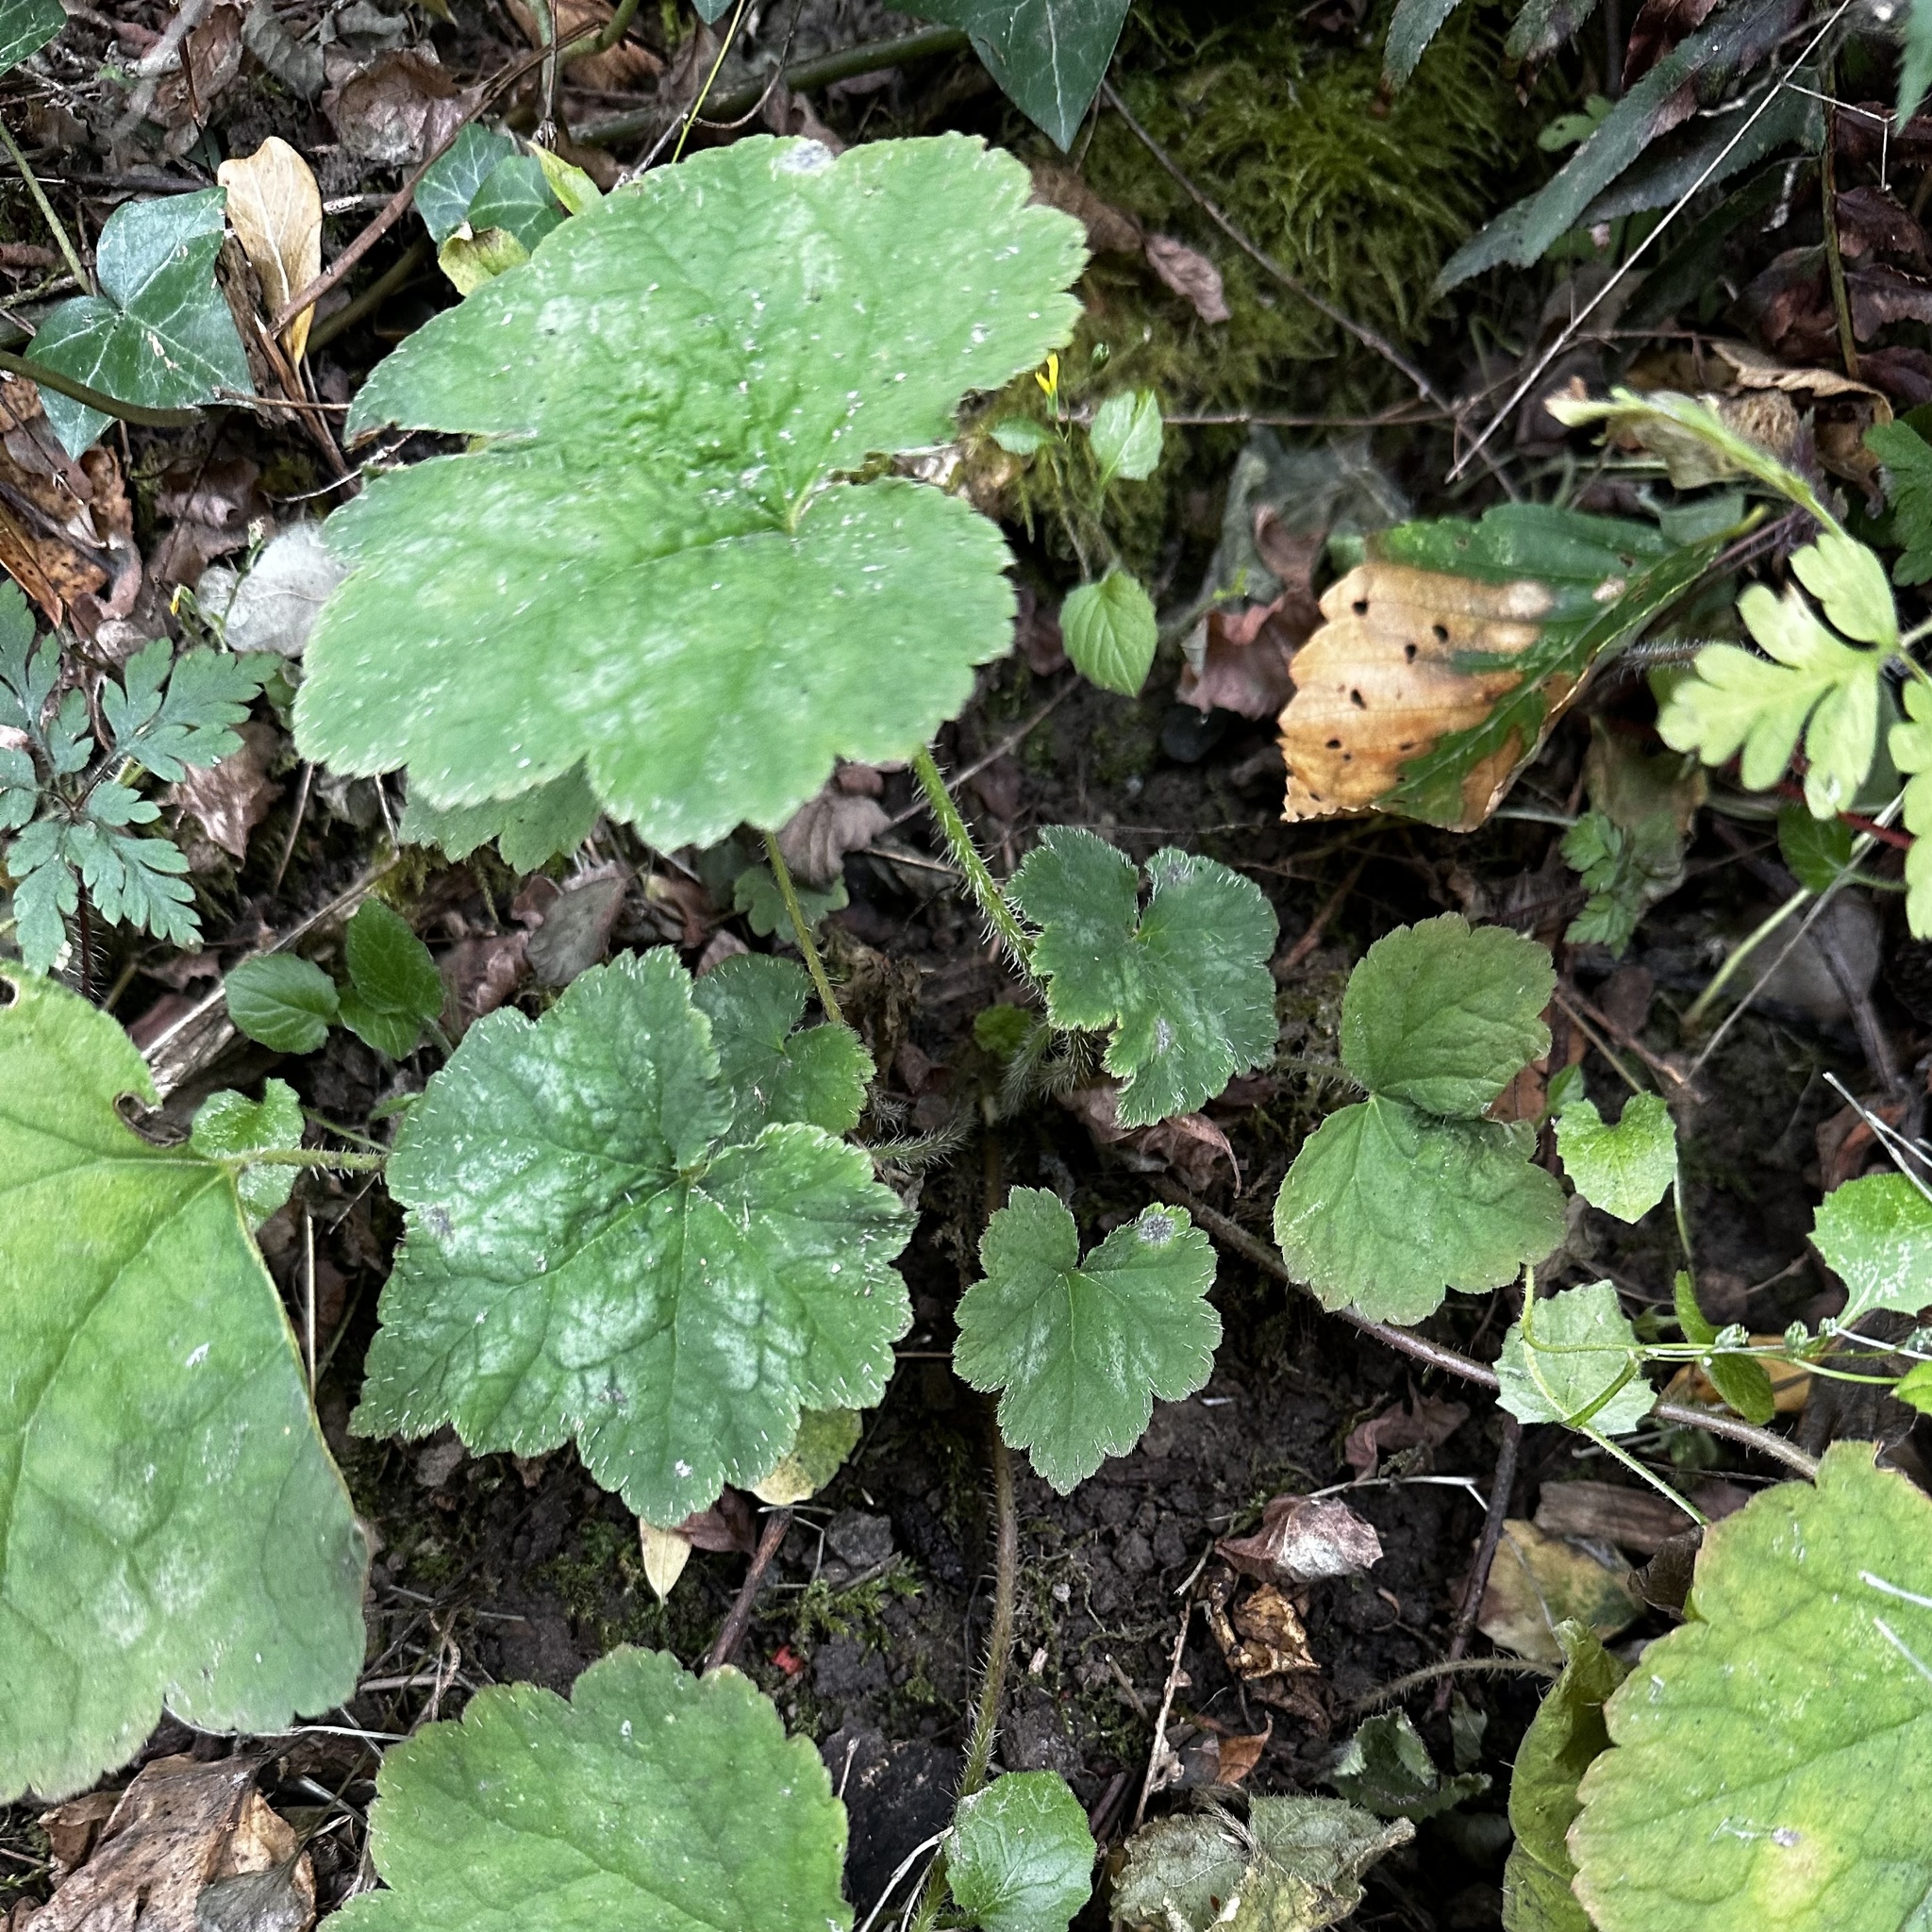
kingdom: Plantae
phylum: Tracheophyta
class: Magnoliopsida
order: Saxifragales
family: Saxifragaceae
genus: Tellima
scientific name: Tellima grandiflora
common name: Fringecups
